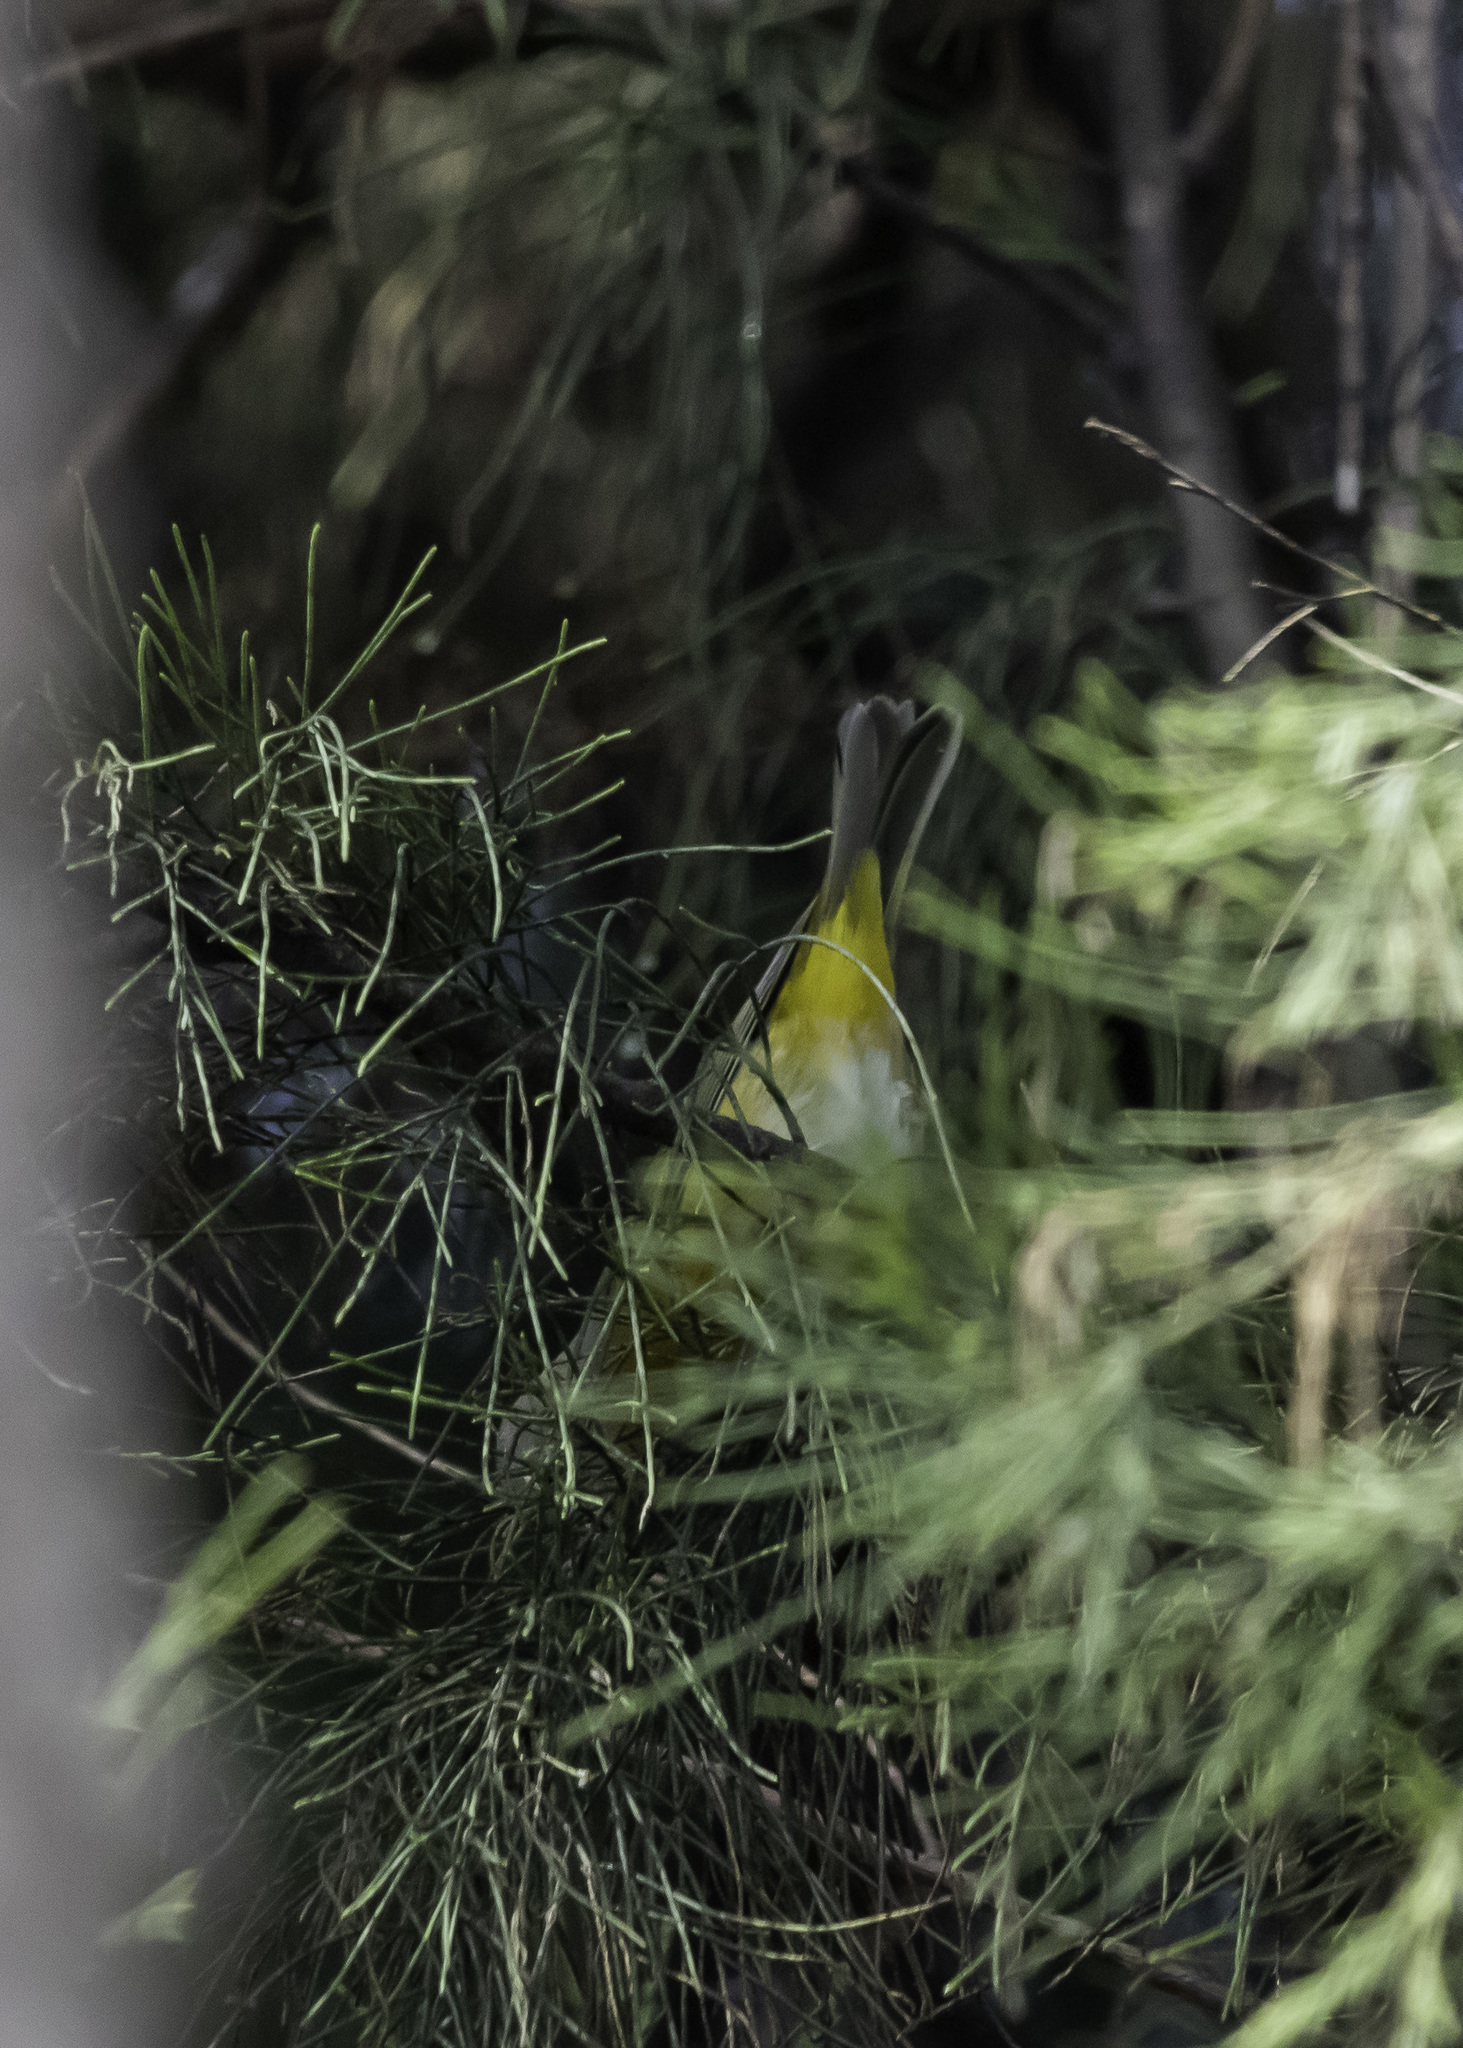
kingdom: Animalia
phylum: Chordata
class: Aves
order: Passeriformes
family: Parulidae
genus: Leiothlypis
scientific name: Leiothlypis ruficapilla
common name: Nashville warbler
